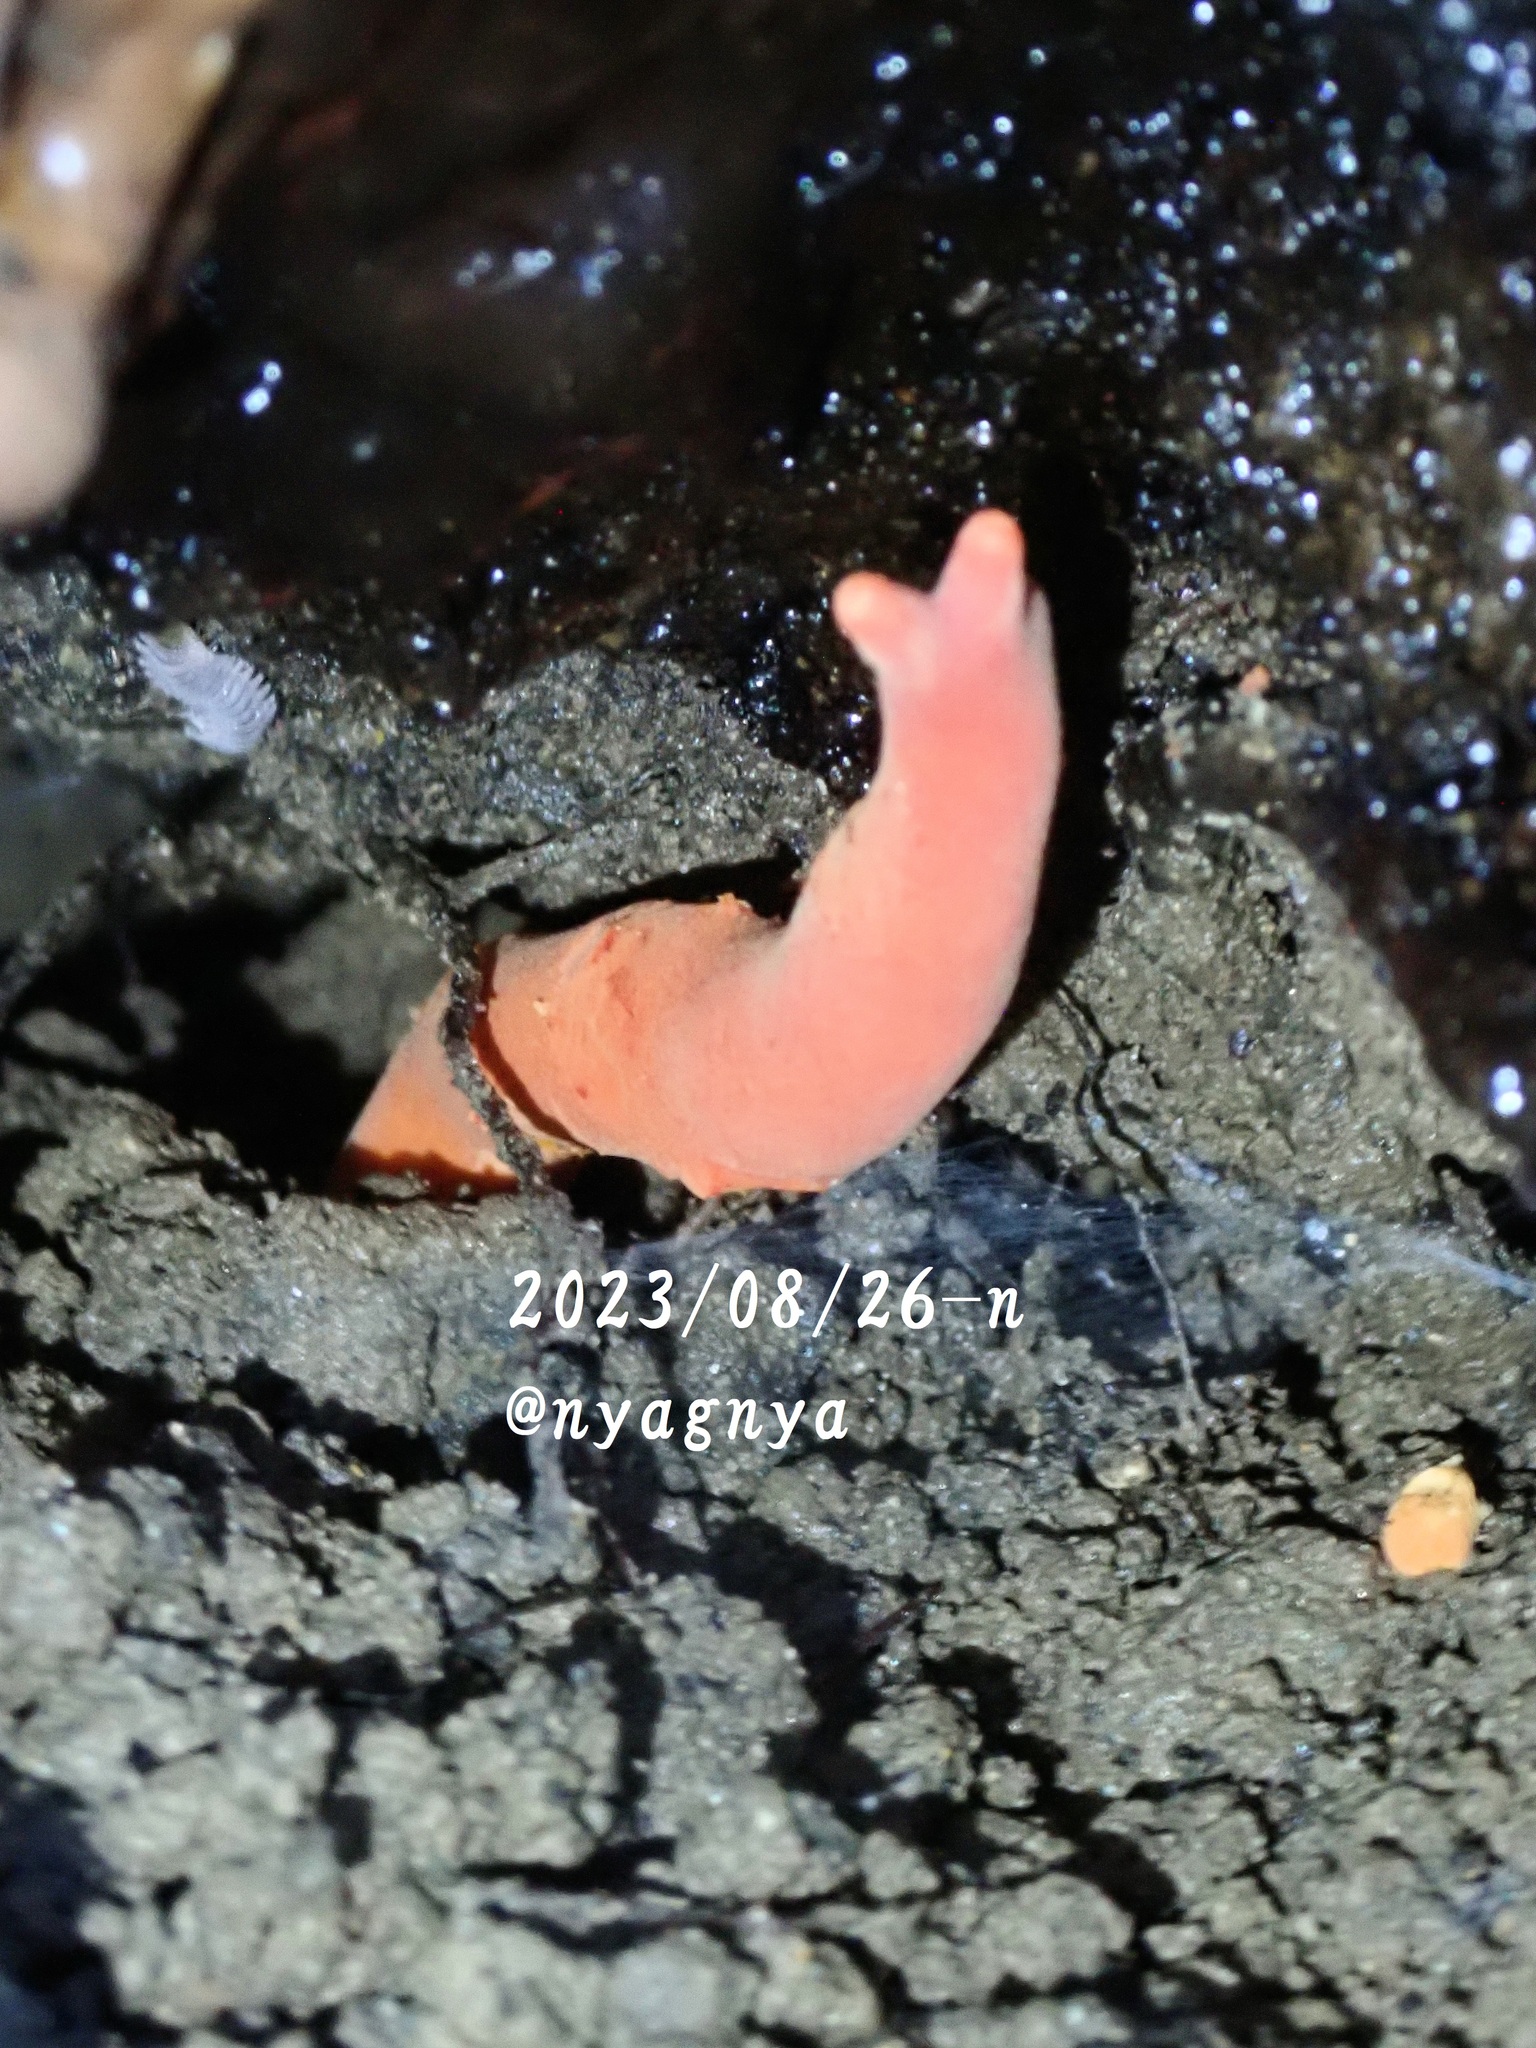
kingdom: Fungi
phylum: Ascomycota
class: Sordariomycetes
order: Hypocreales
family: Hypocreaceae
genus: Trichoderma
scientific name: Trichoderma cornu-damae
